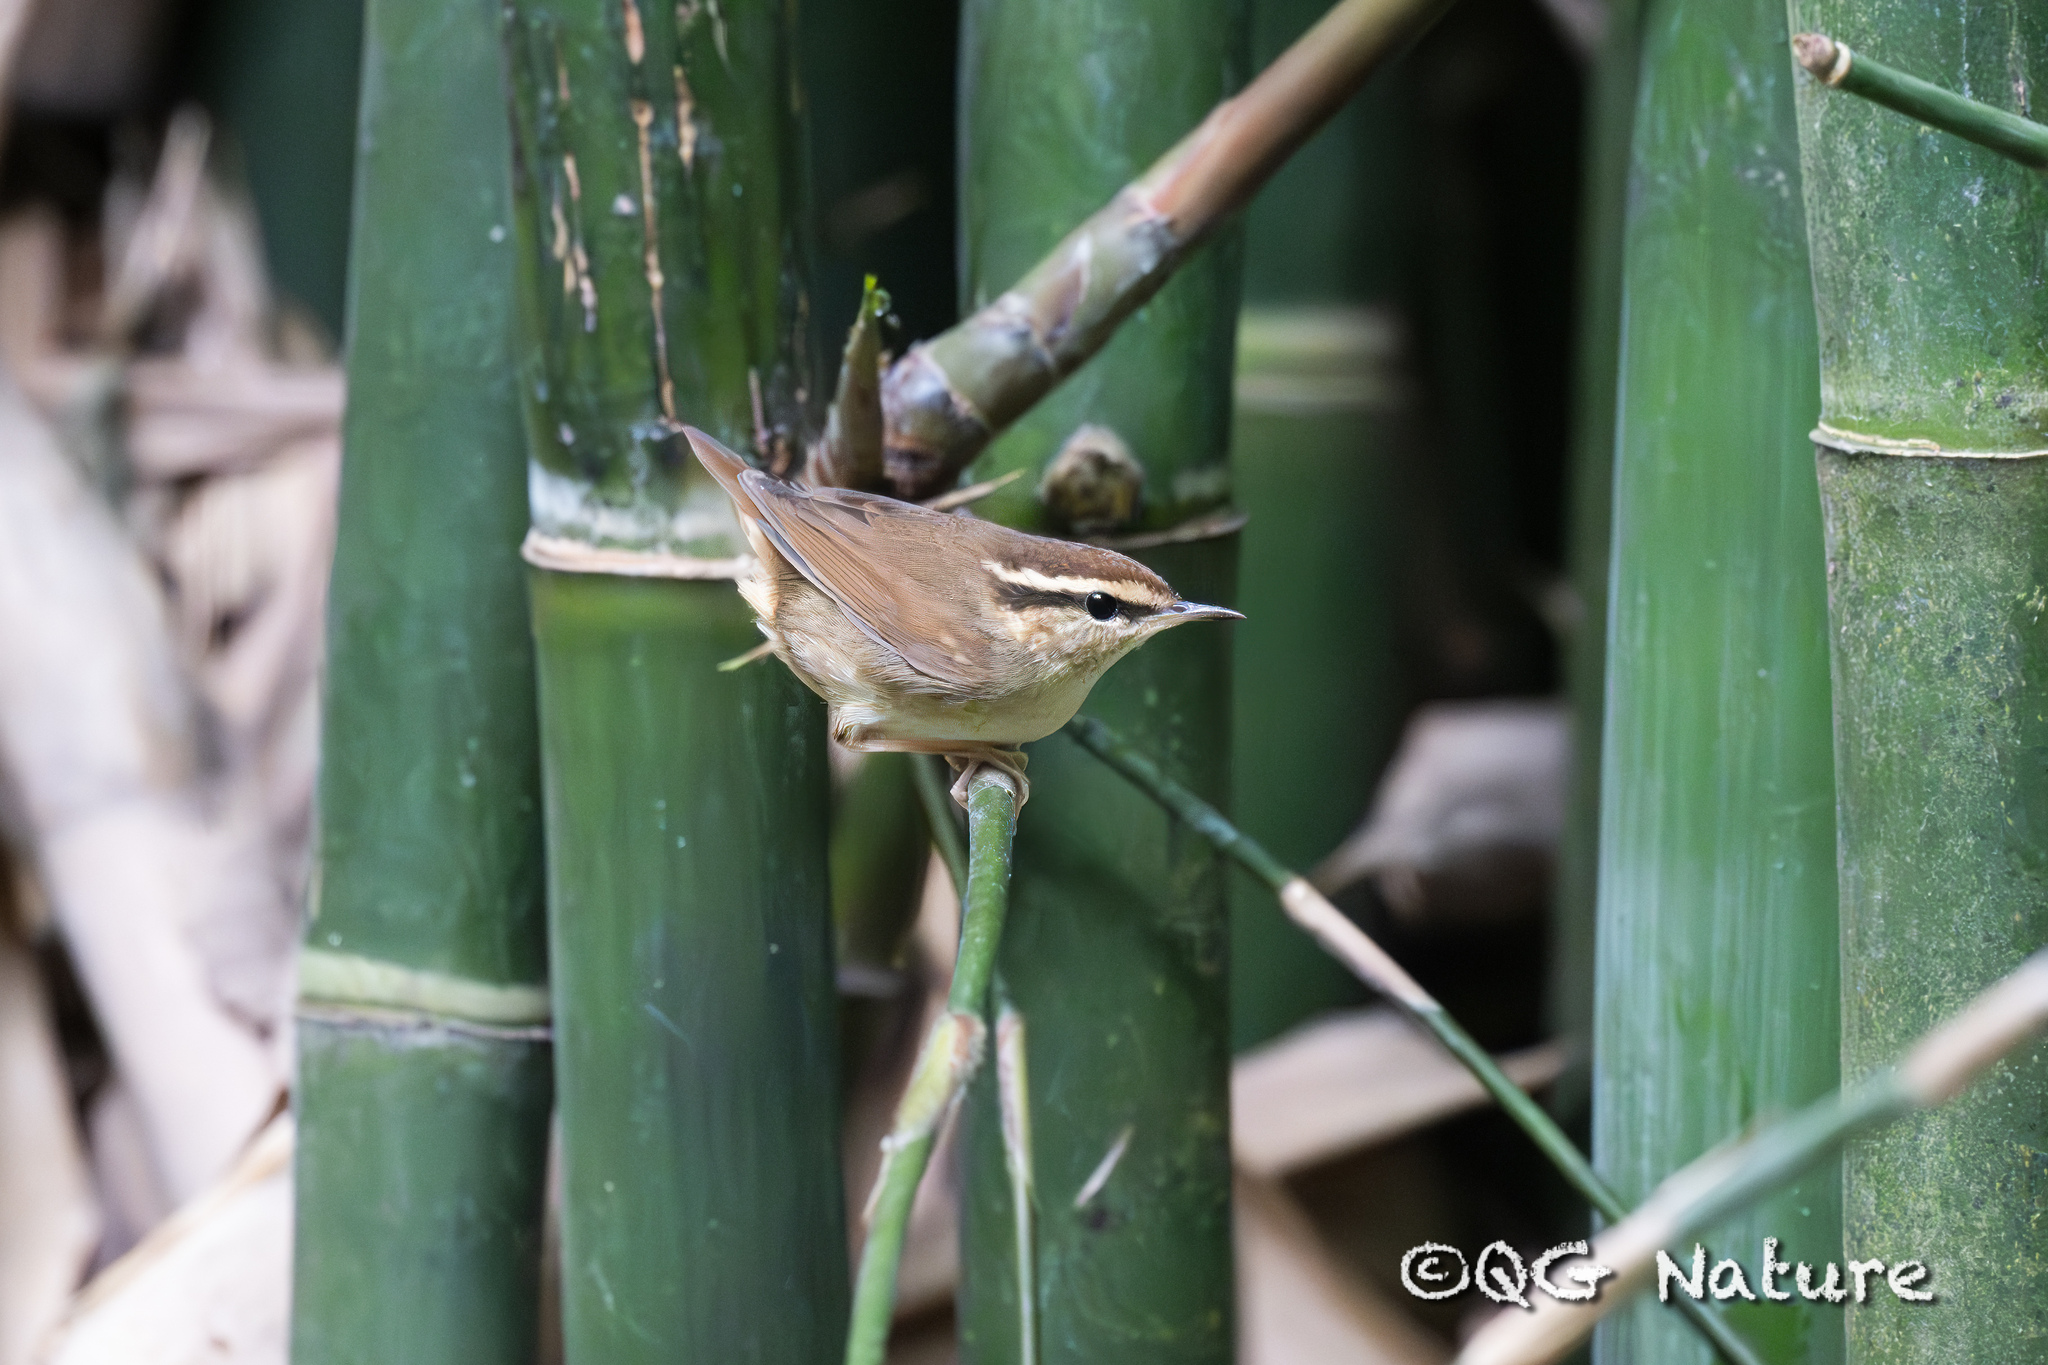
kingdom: Animalia
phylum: Chordata
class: Aves
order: Passeriformes
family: Cettiidae
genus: Urosphena
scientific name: Urosphena squameiceps
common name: Asian stubtail
